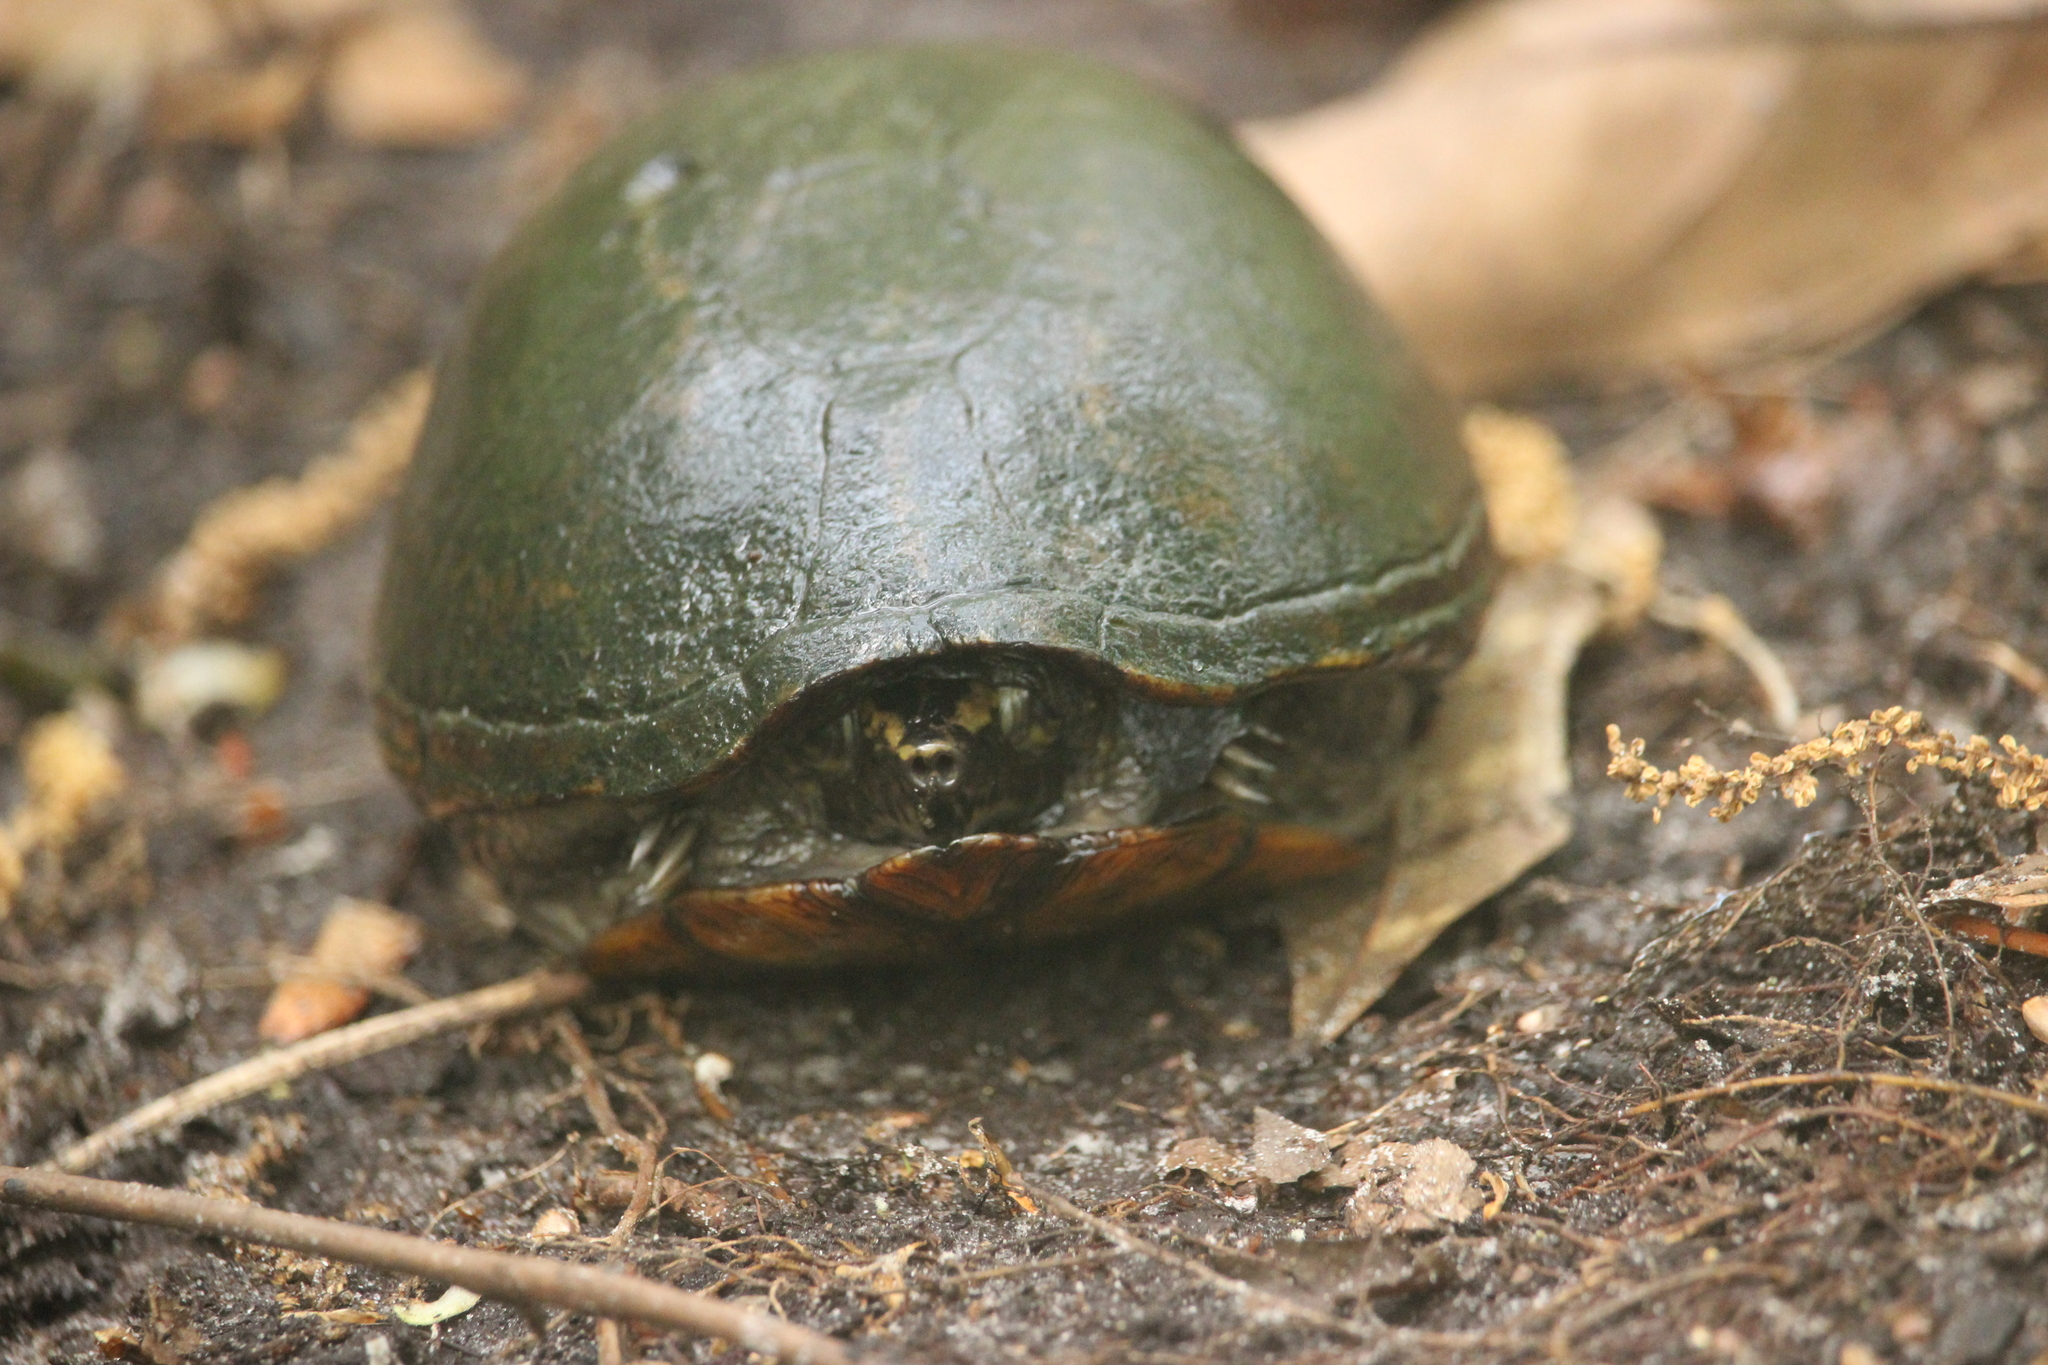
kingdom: Animalia
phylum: Chordata
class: Testudines
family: Kinosternidae
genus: Kinosternon
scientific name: Kinosternon baurii
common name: Striped mud turtle
